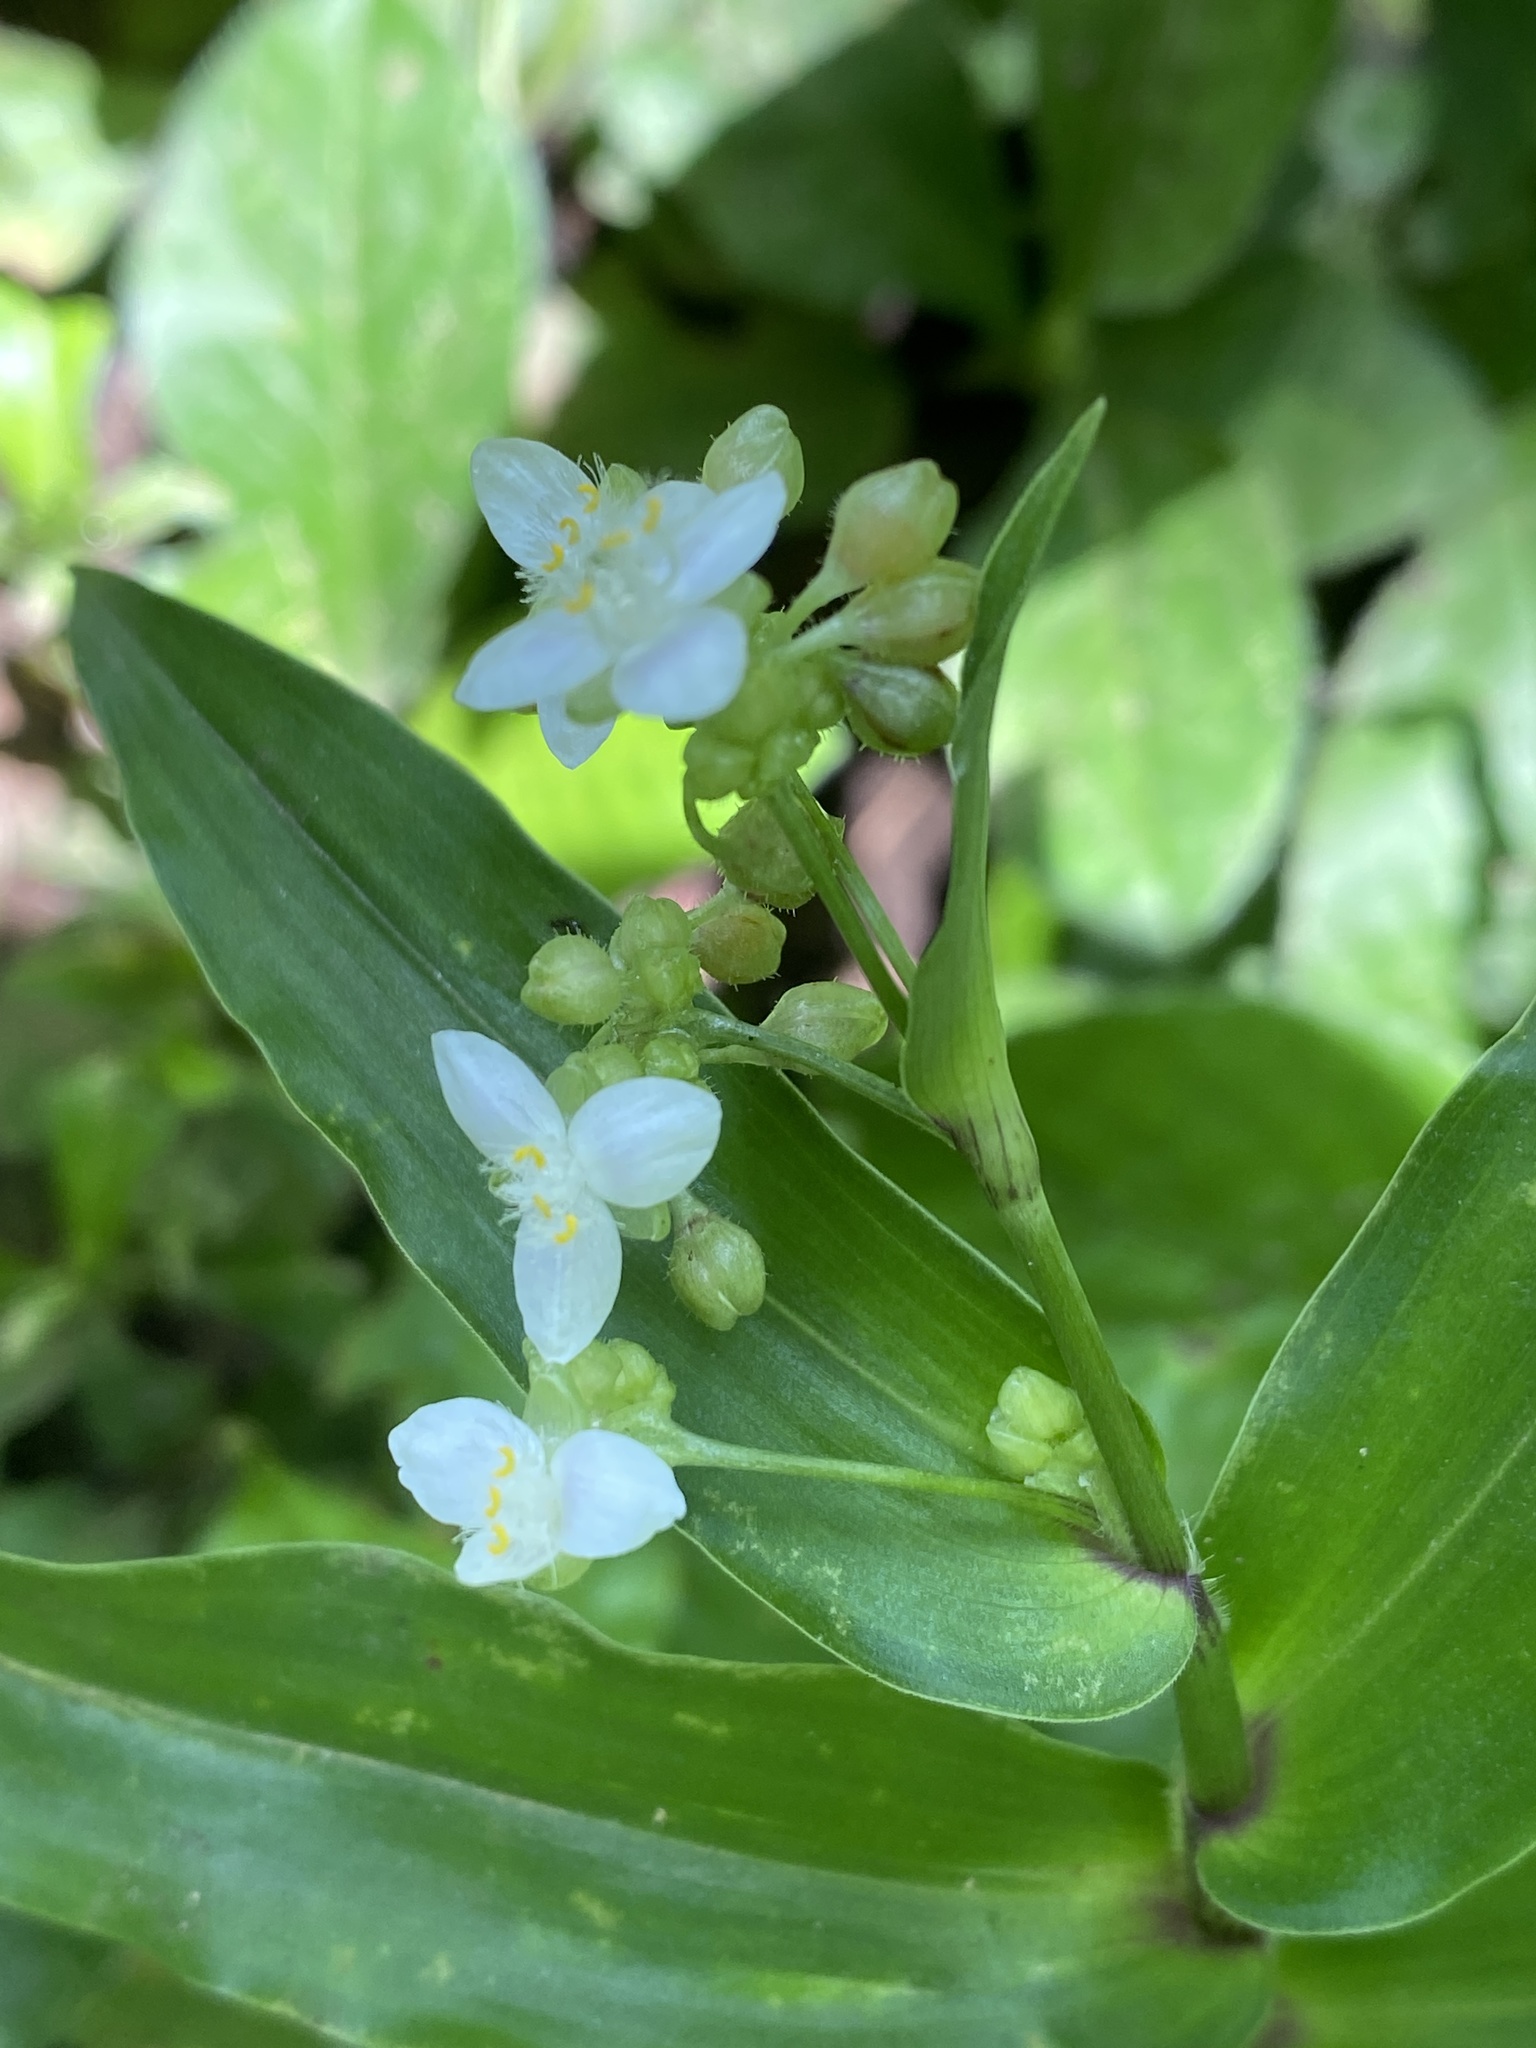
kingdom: Plantae
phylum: Tracheophyta
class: Liliopsida
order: Commelinales
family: Commelinaceae
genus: Callisia
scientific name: Callisia serrulata
